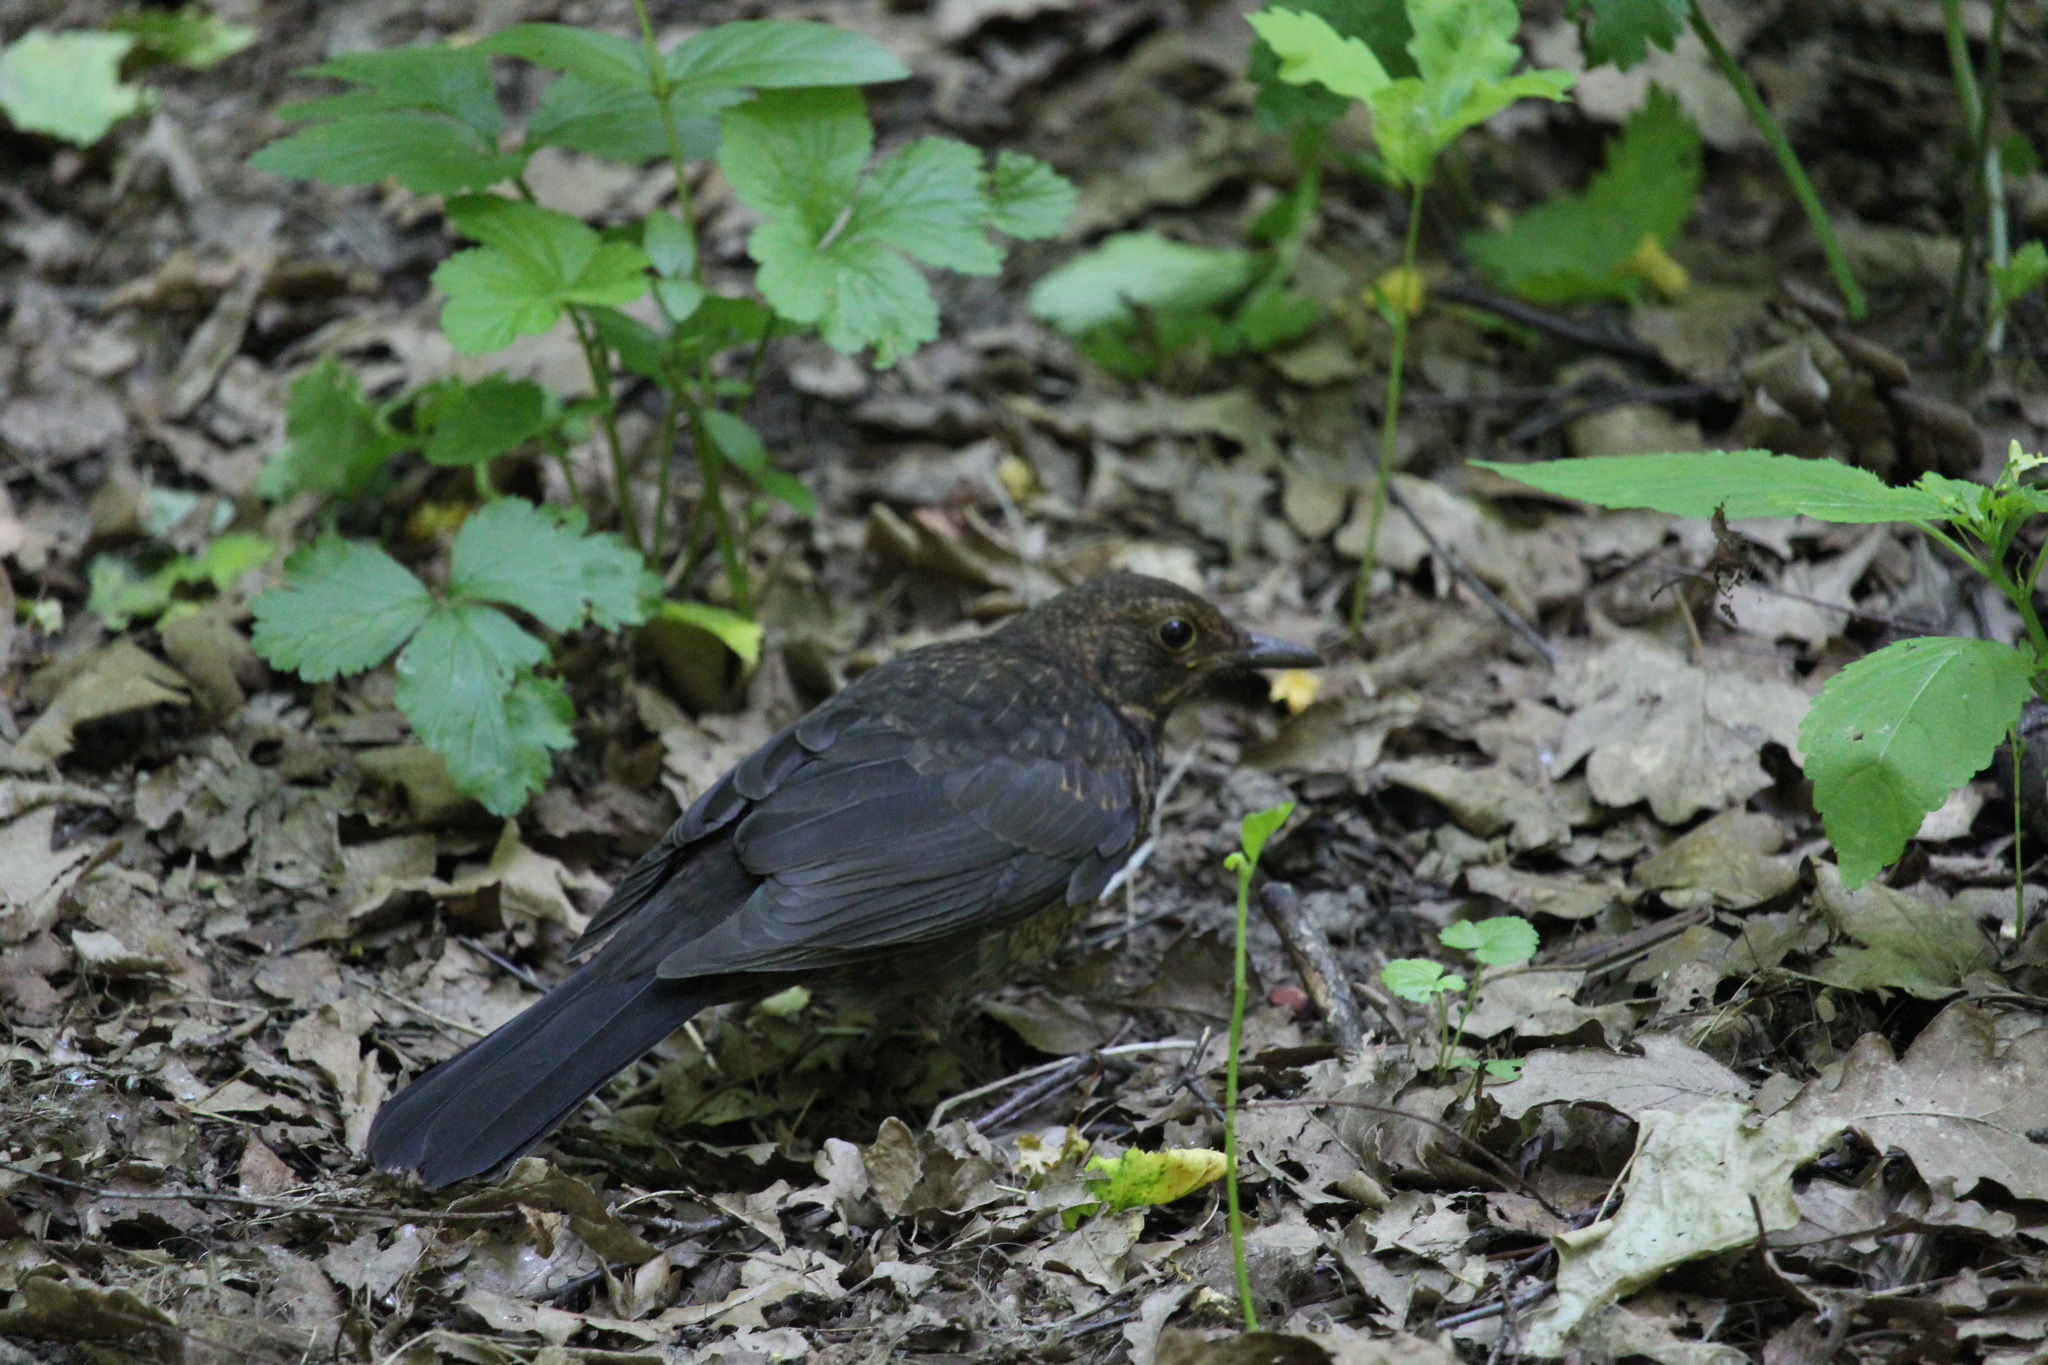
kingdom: Animalia
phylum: Chordata
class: Aves
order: Passeriformes
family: Turdidae
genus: Turdus
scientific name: Turdus merula
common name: Common blackbird
